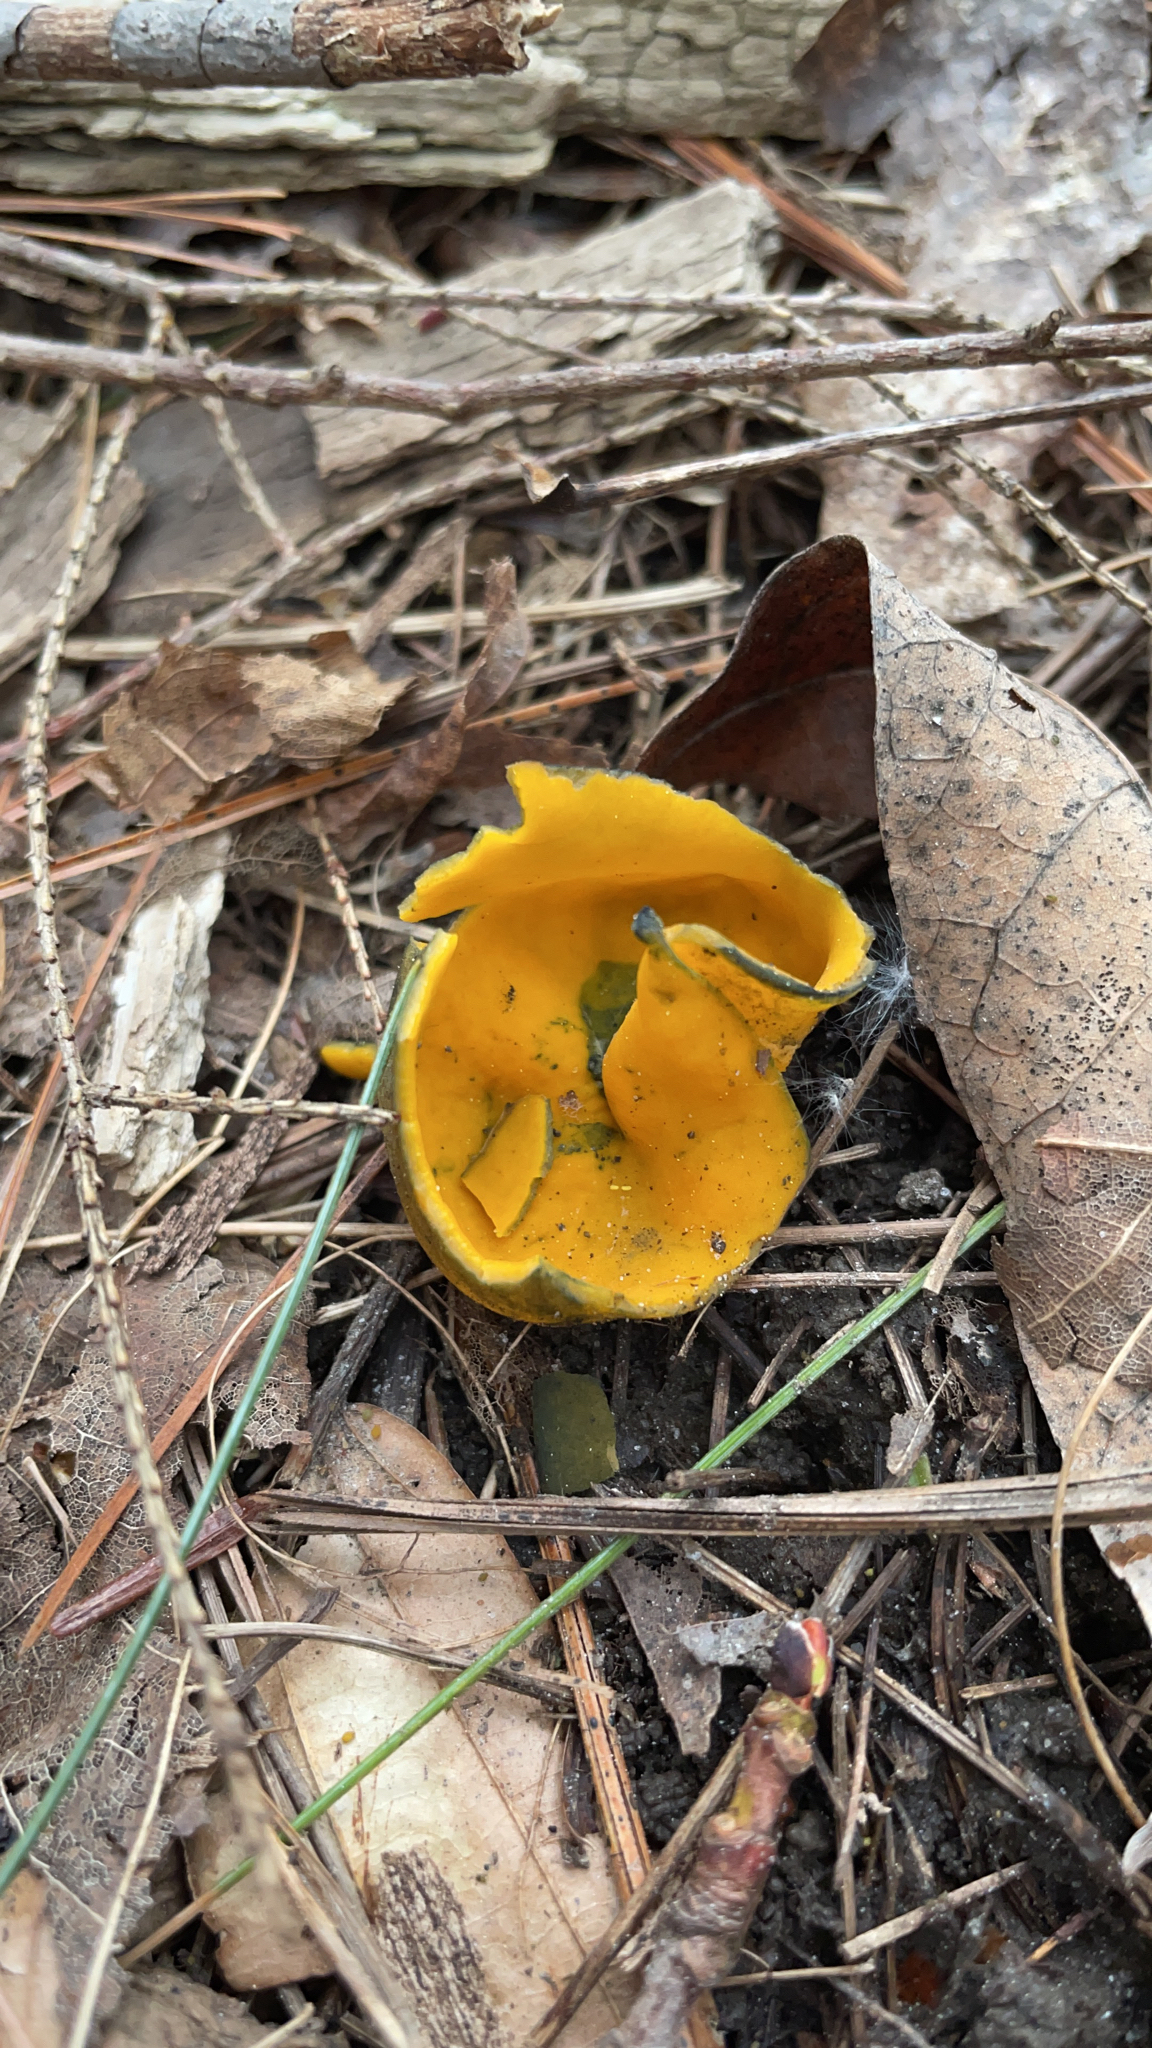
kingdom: Fungi
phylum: Ascomycota
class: Pezizomycetes
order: Pezizales
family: Caloscyphaceae
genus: Caloscypha
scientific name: Caloscypha fulgens
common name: Golden cup
